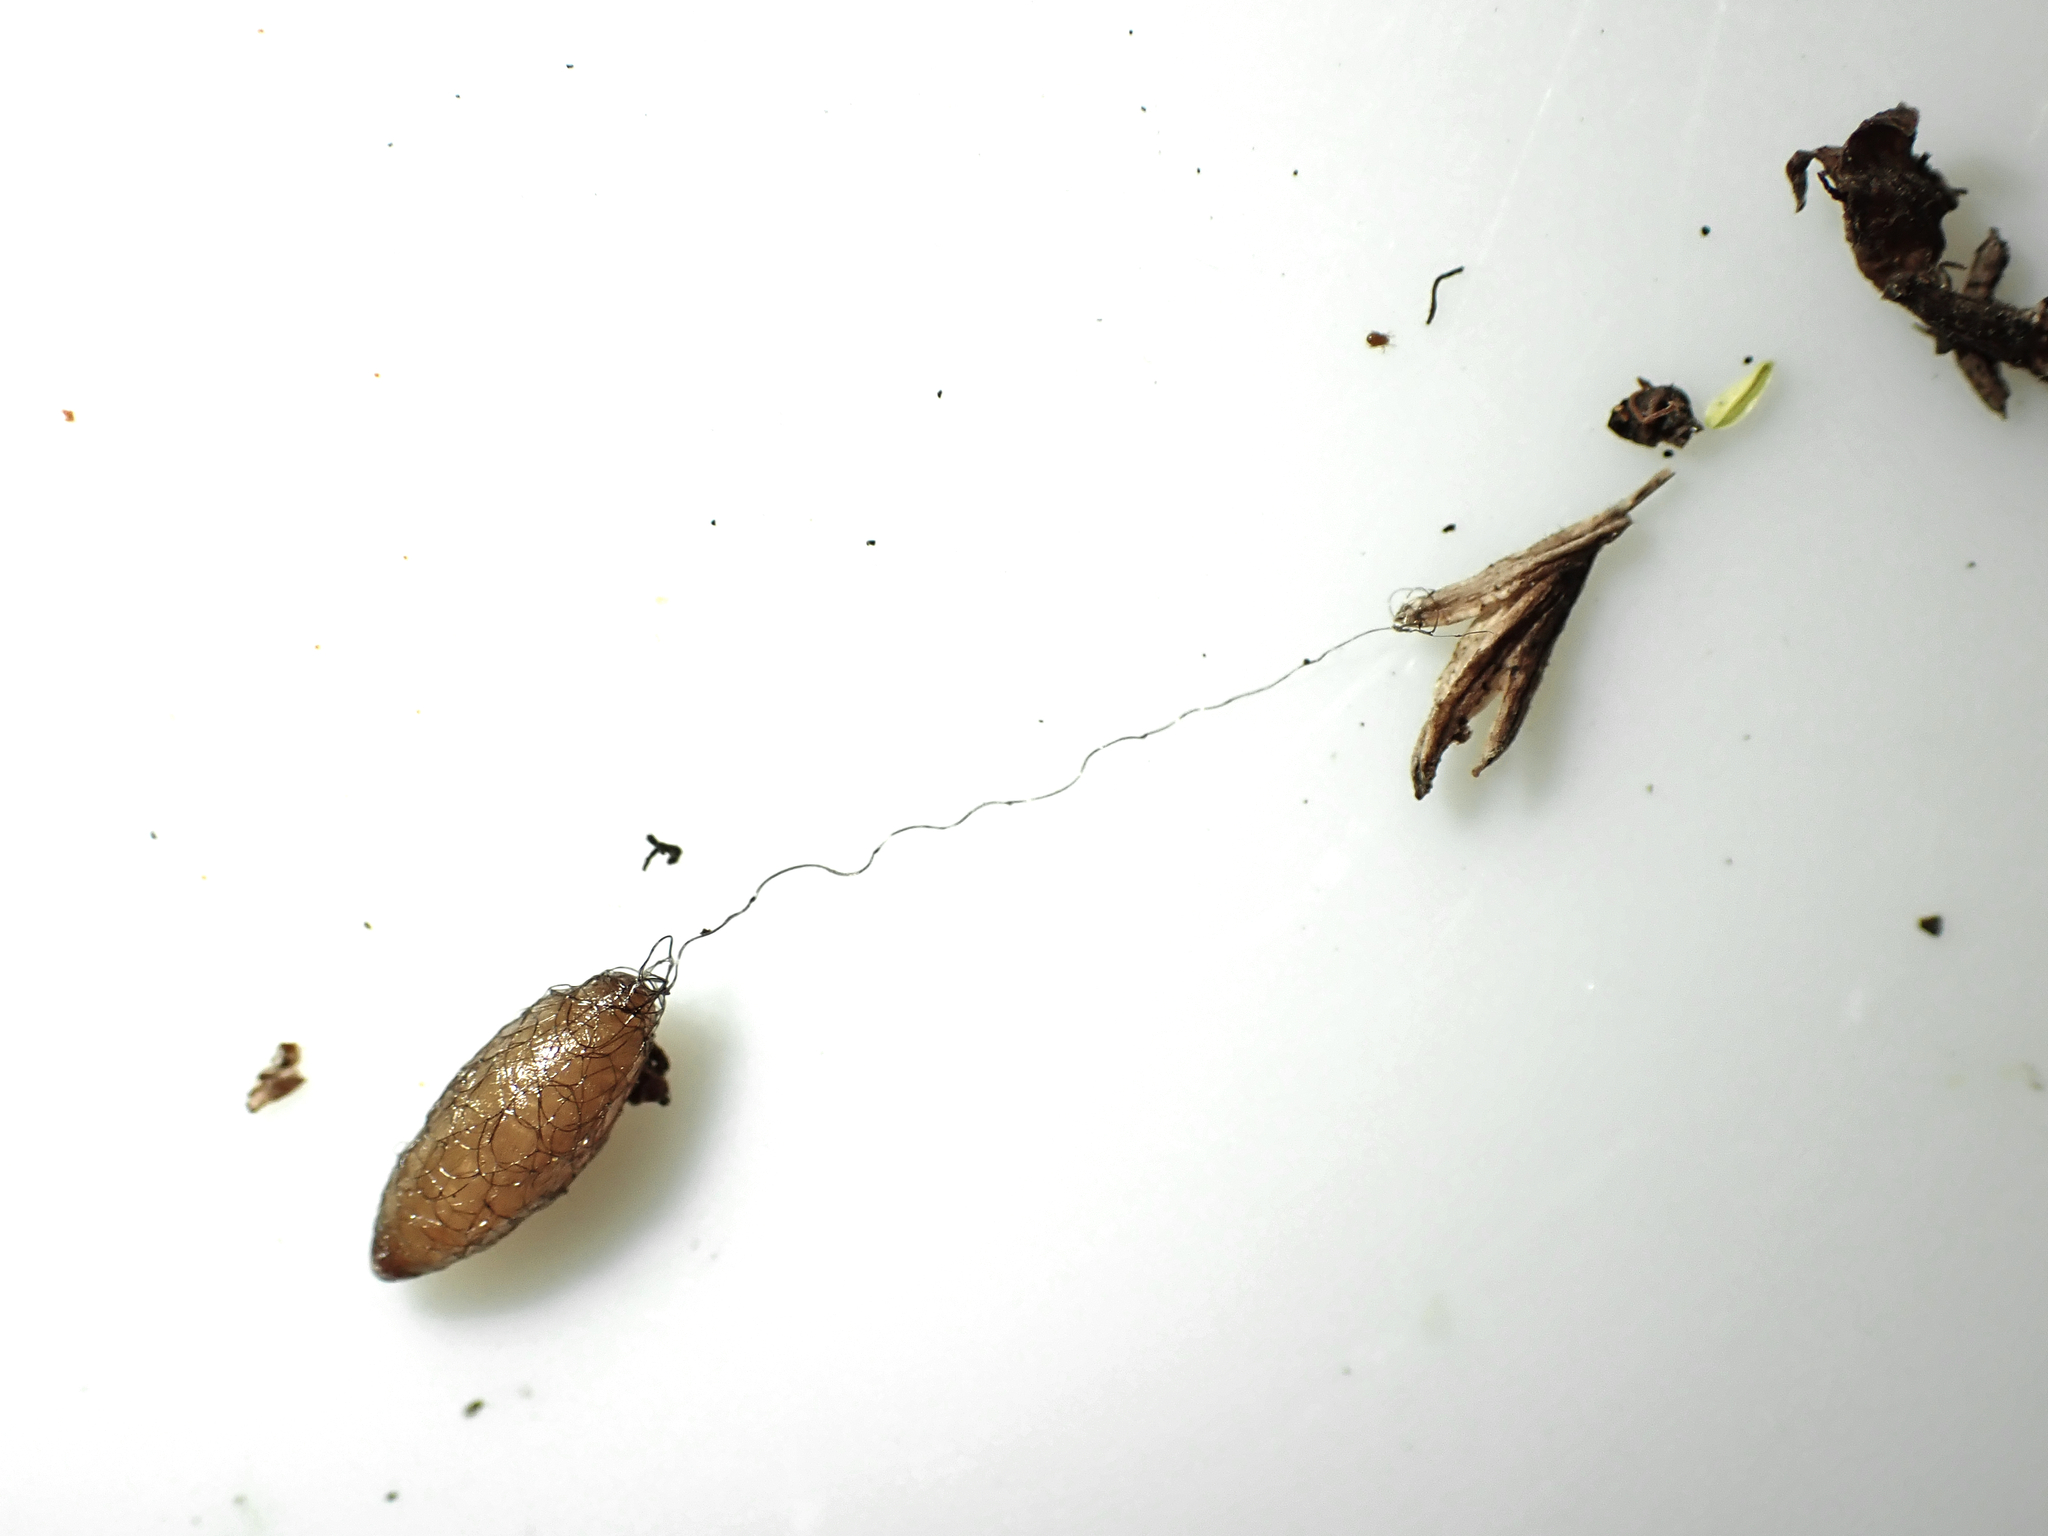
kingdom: Animalia
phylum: Arthropoda
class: Insecta
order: Hymenoptera
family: Braconidae
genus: Meteorus
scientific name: Meteorus pulchricornis
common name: Braconid wasp
